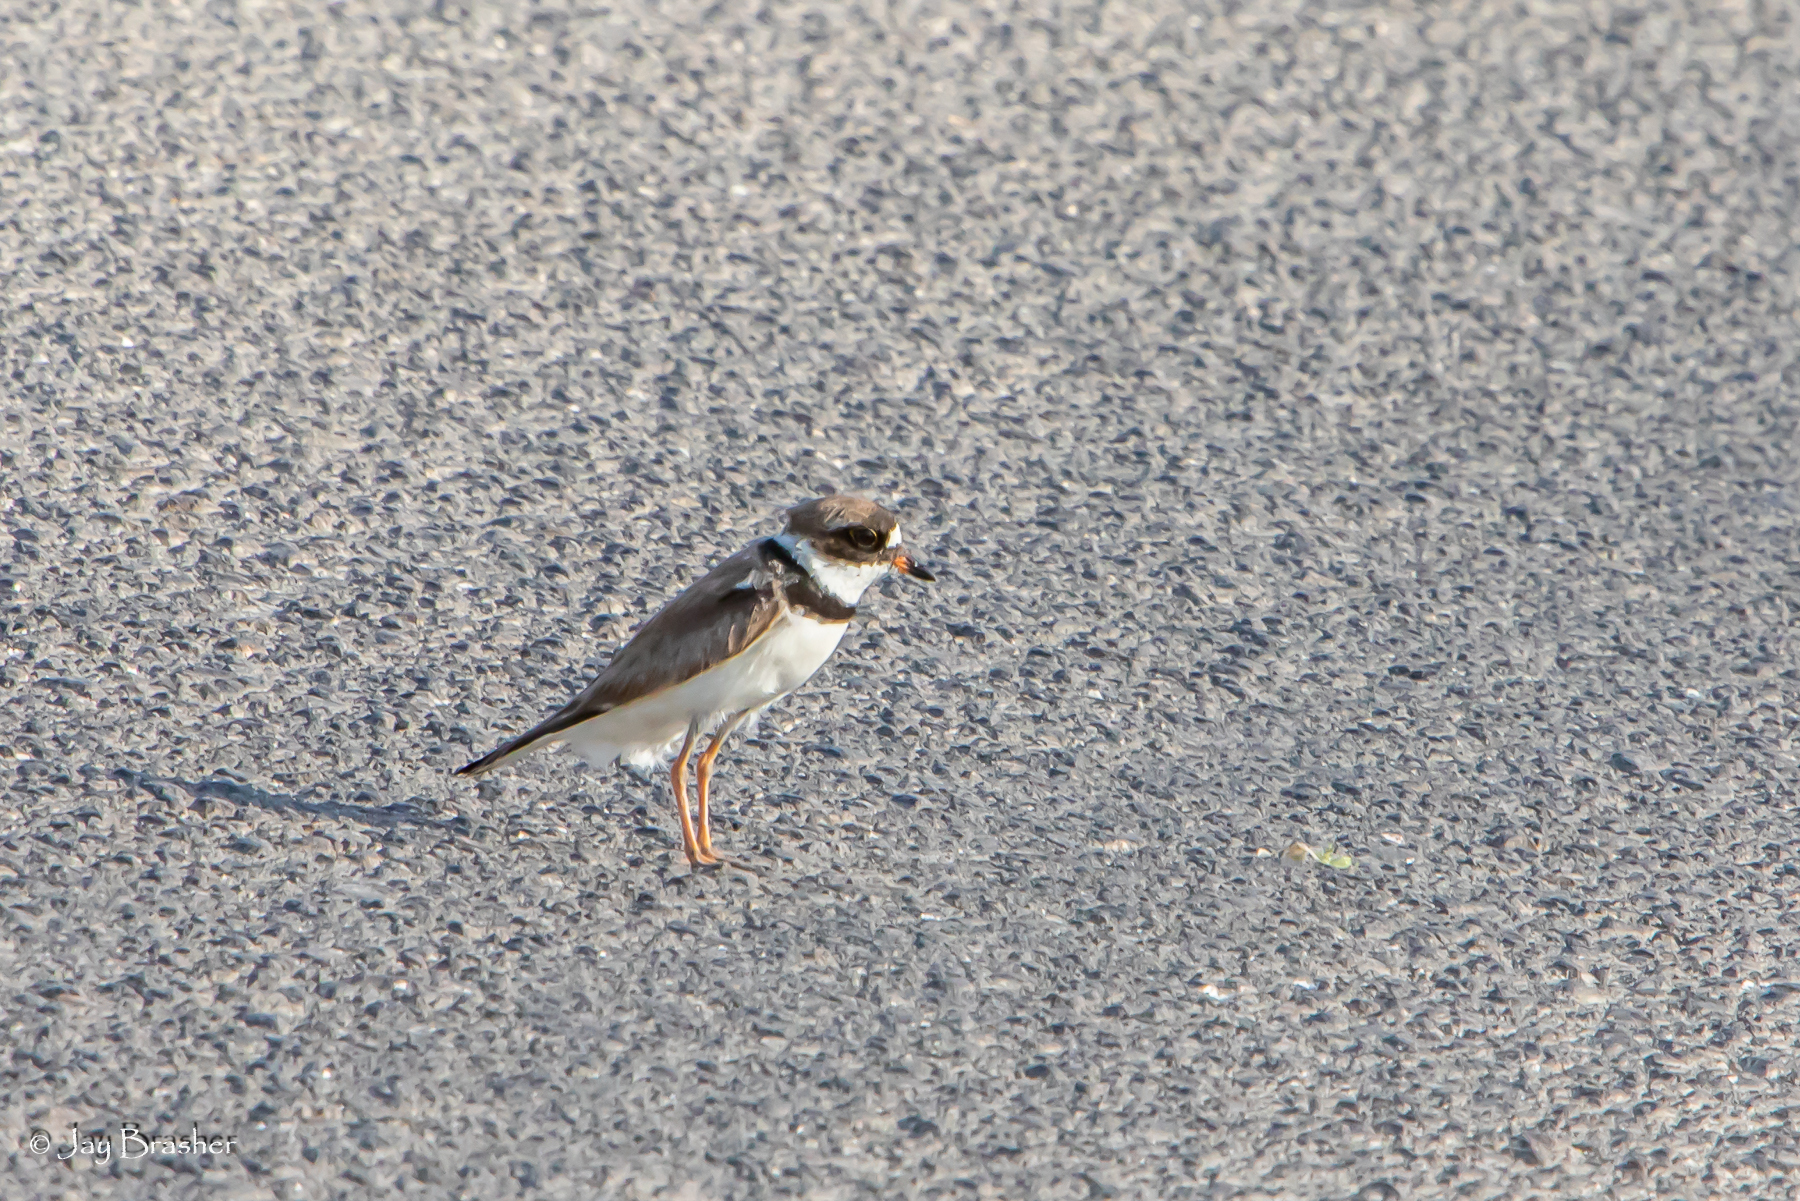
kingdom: Animalia
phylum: Chordata
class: Aves
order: Charadriiformes
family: Charadriidae
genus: Charadrius
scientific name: Charadrius semipalmatus
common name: Semipalmated plover
